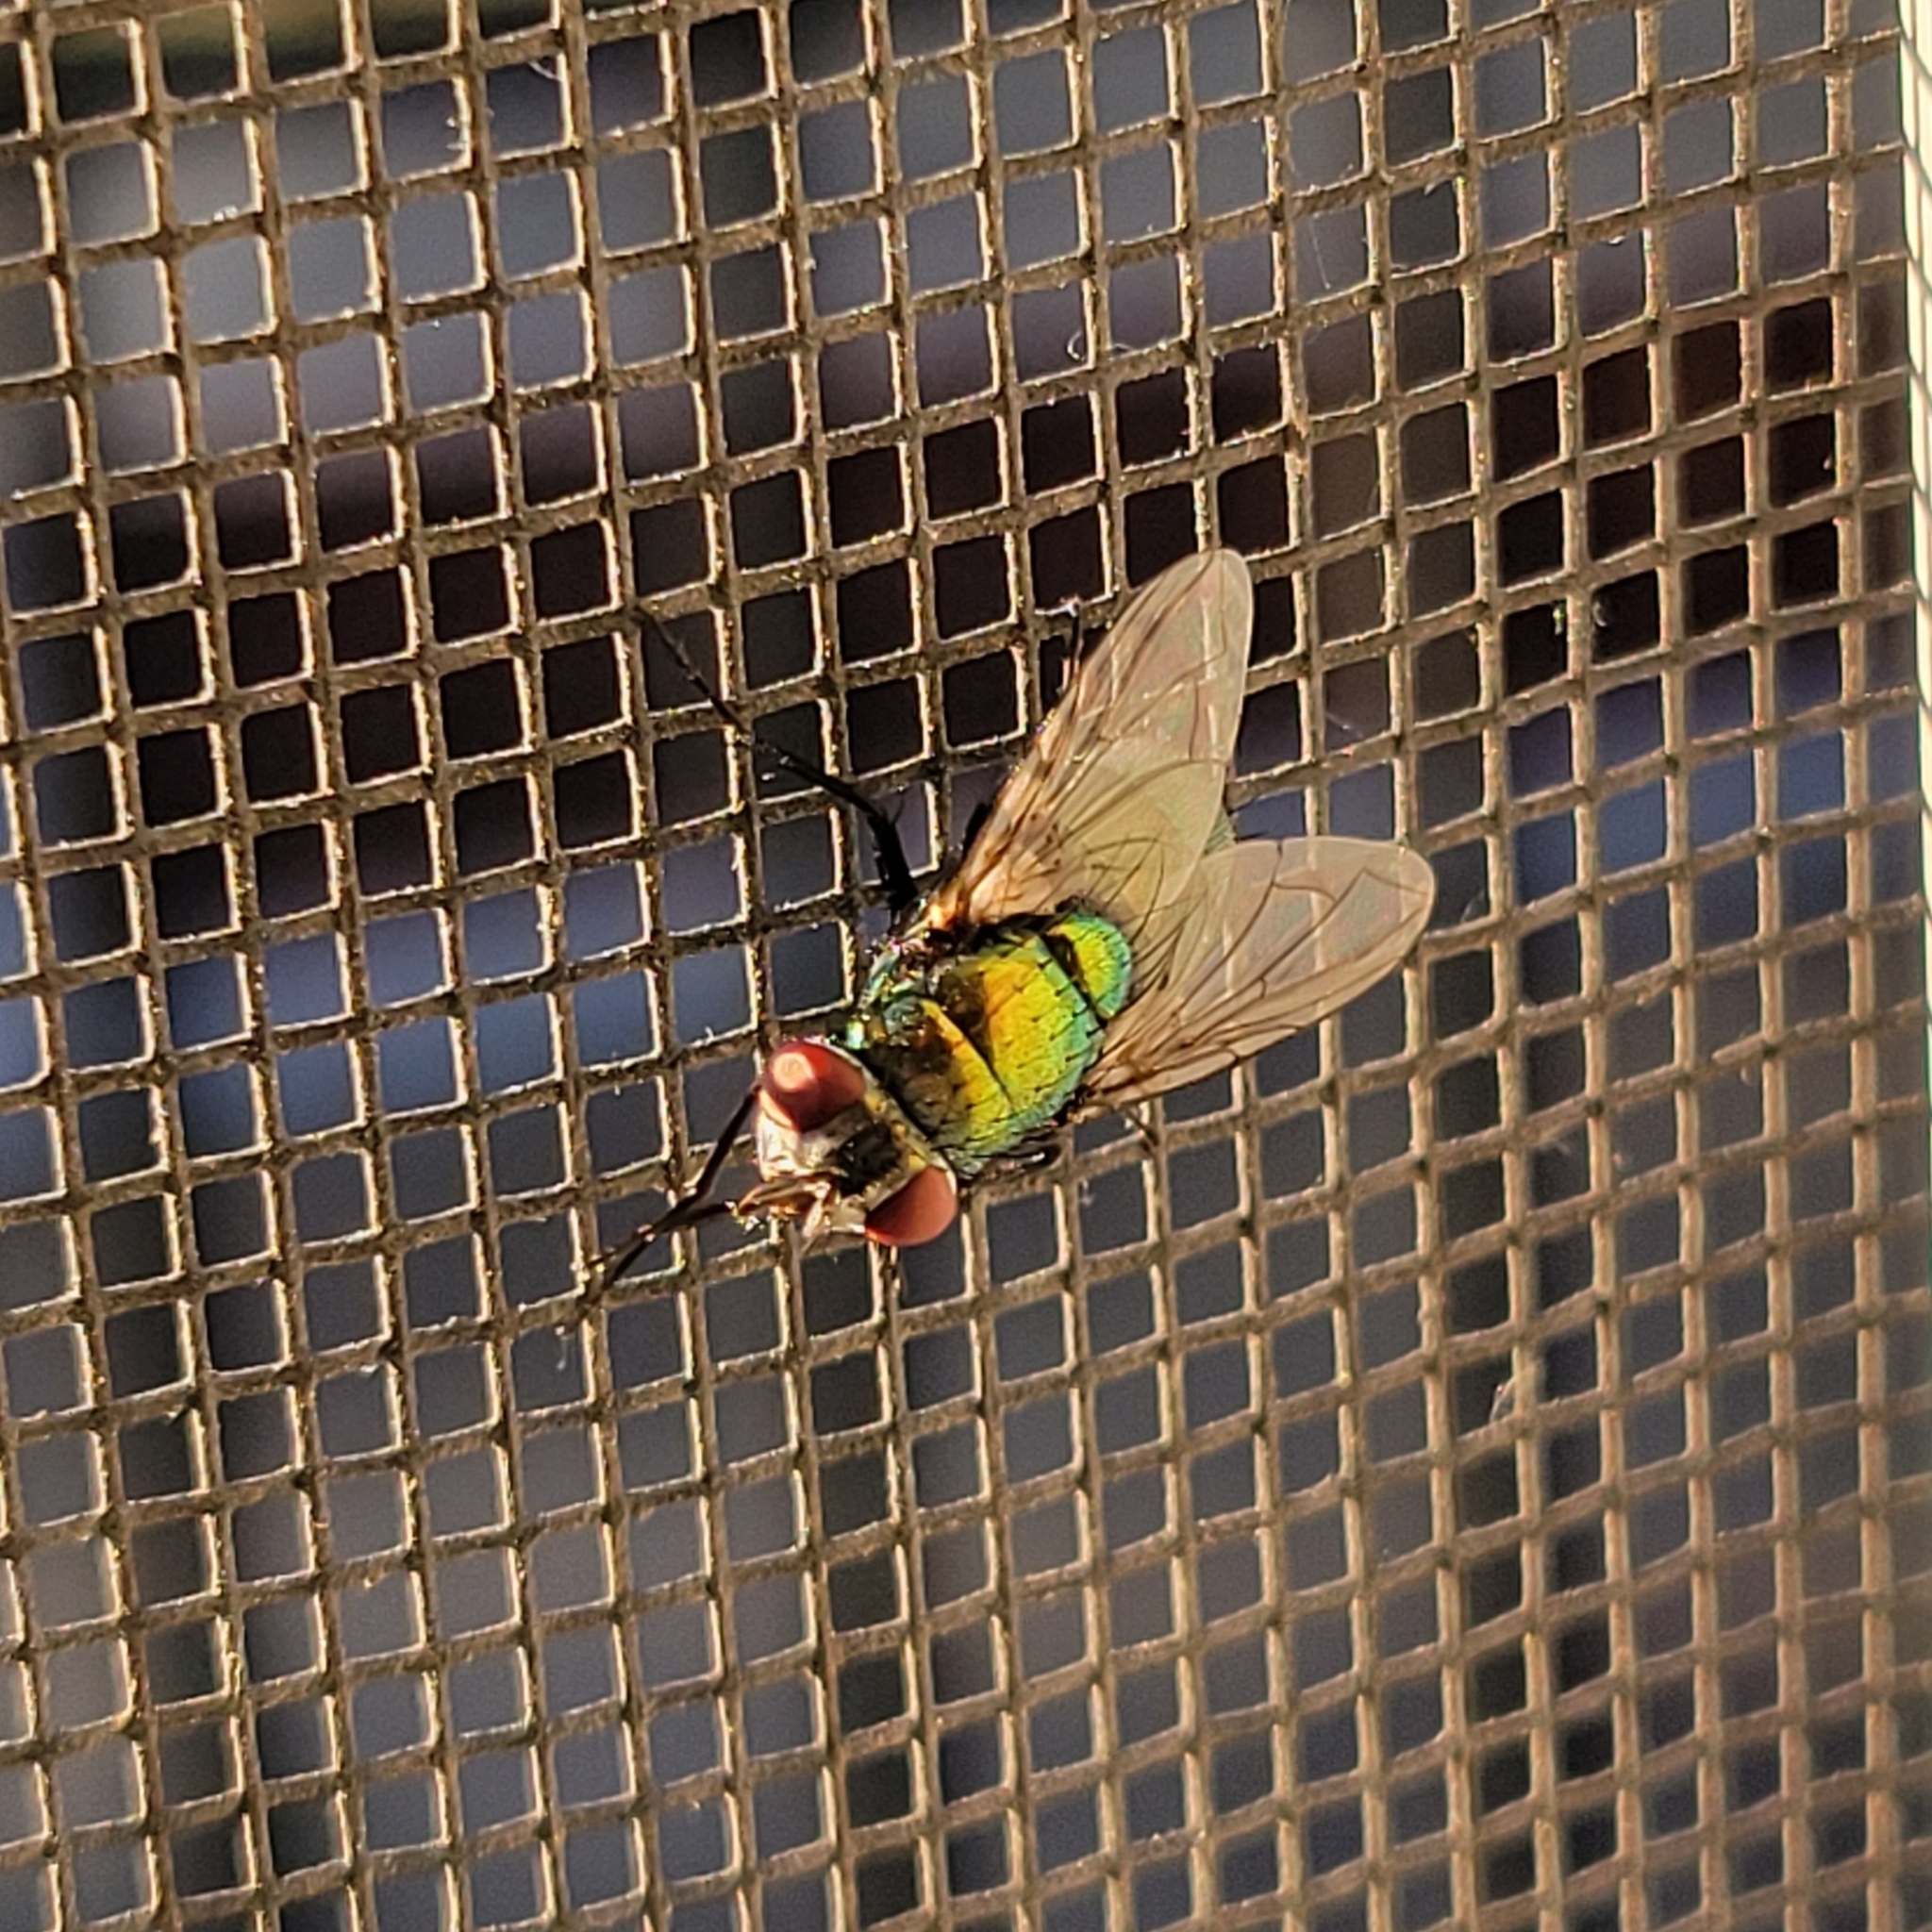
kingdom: Animalia
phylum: Arthropoda
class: Insecta
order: Diptera
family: Calliphoridae
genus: Lucilia
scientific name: Lucilia sericata
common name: Blow fly
